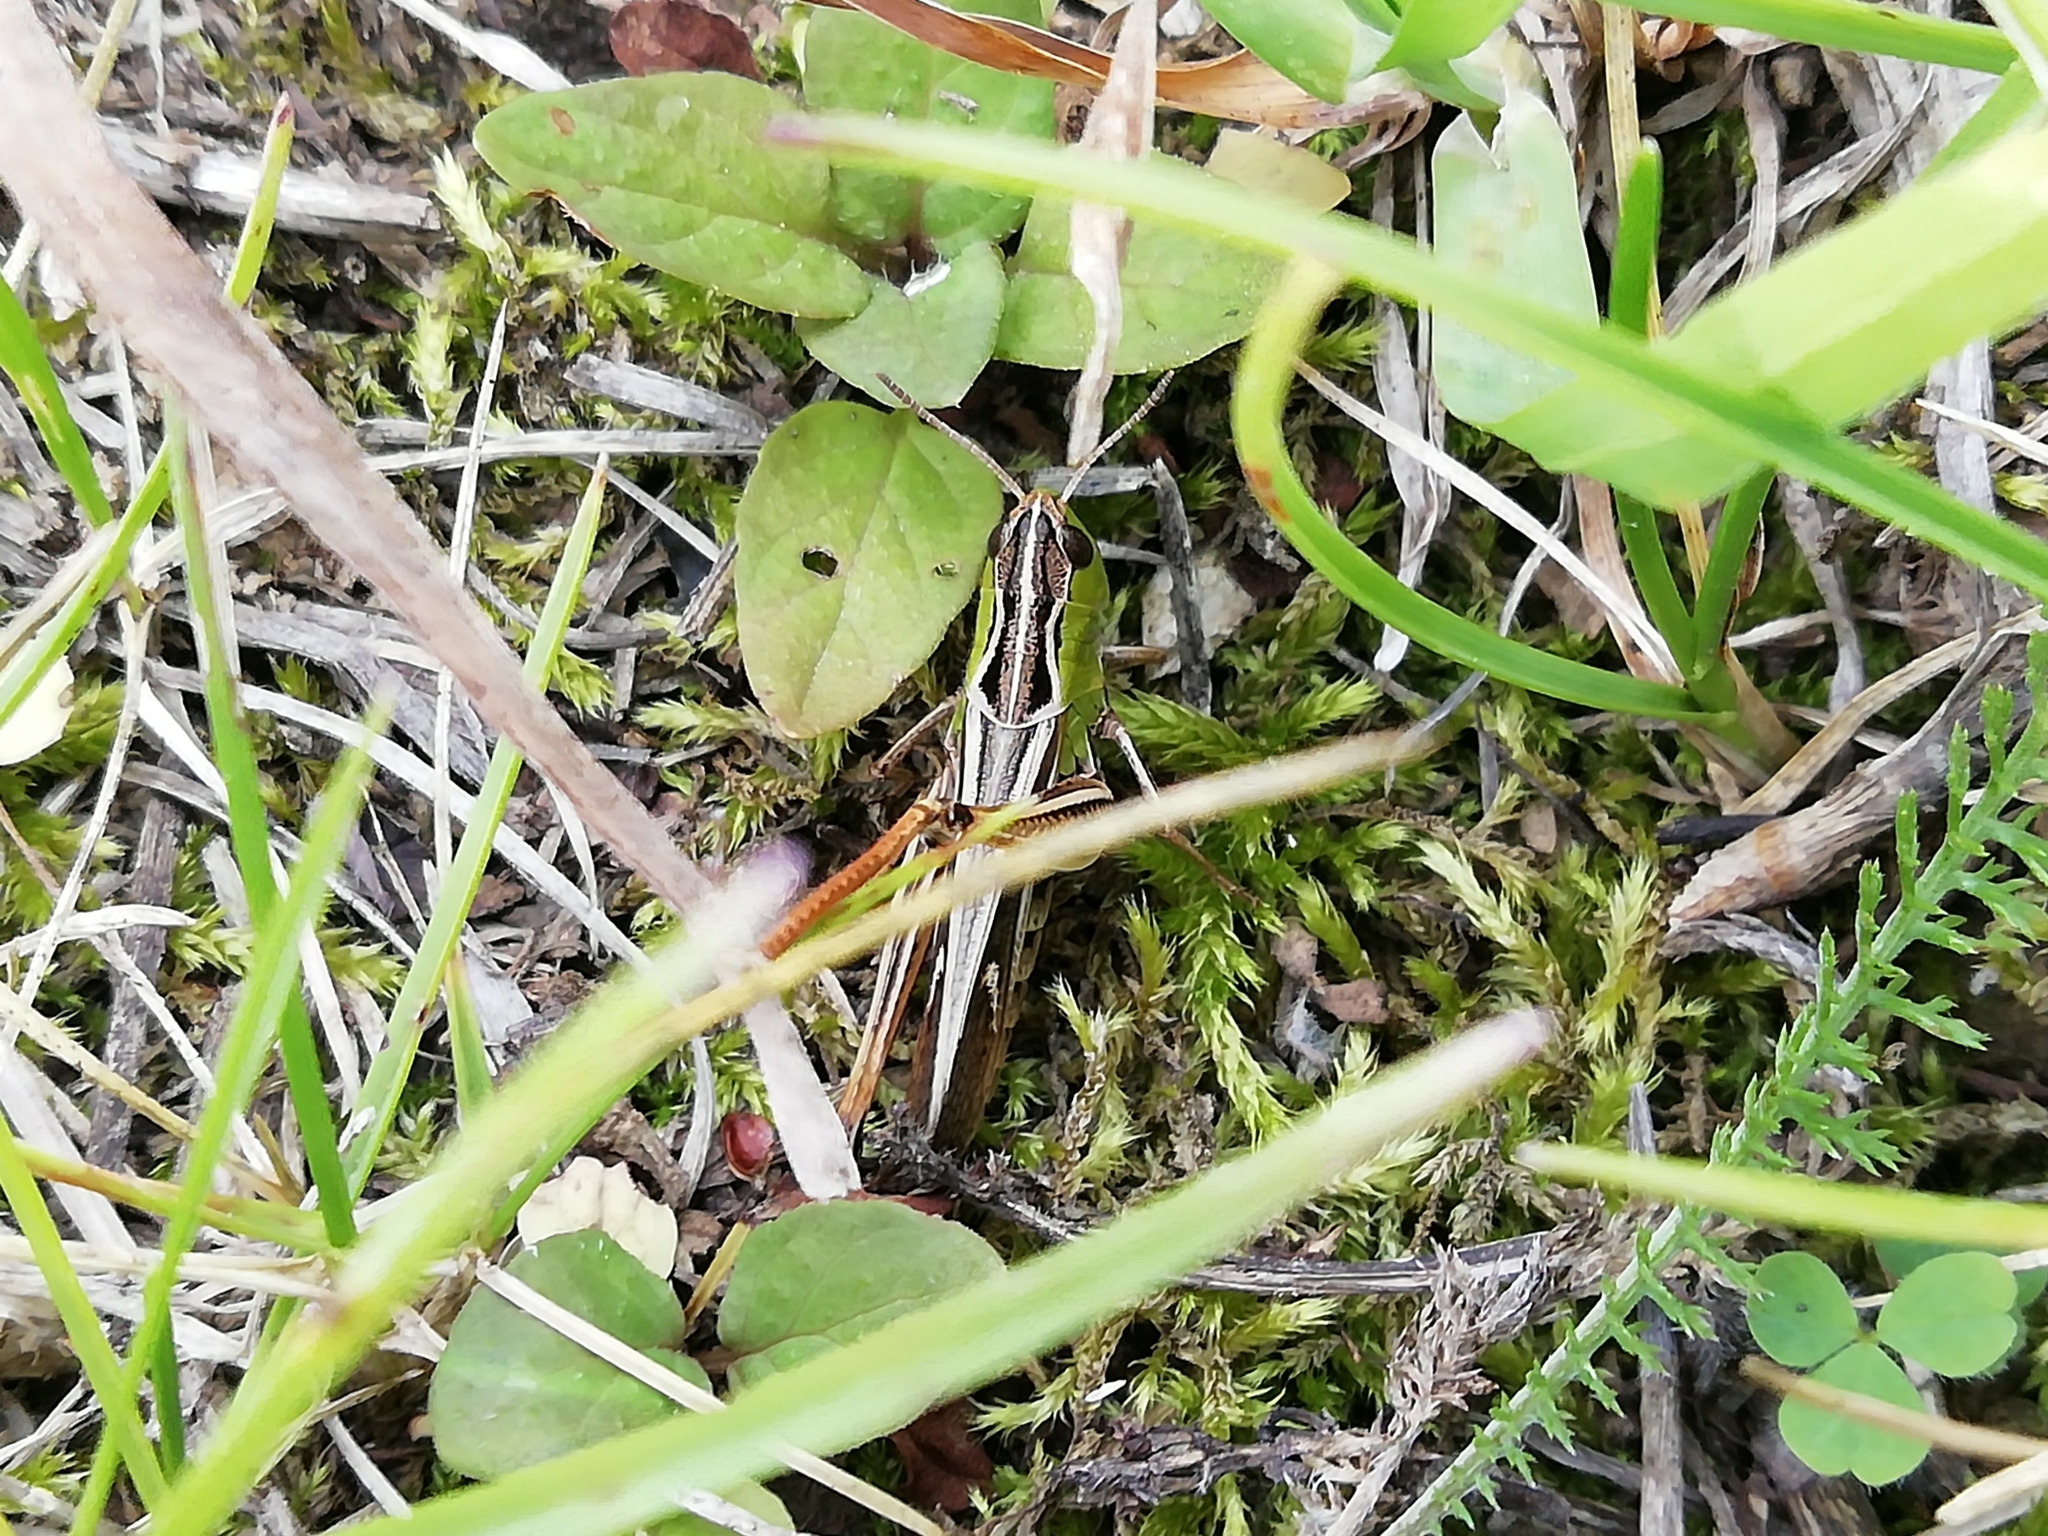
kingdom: Animalia
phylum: Arthropoda
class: Insecta
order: Orthoptera
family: Acrididae
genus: Stenobothrus
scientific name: Stenobothrus lineatus
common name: Stripe-winged grasshopper
